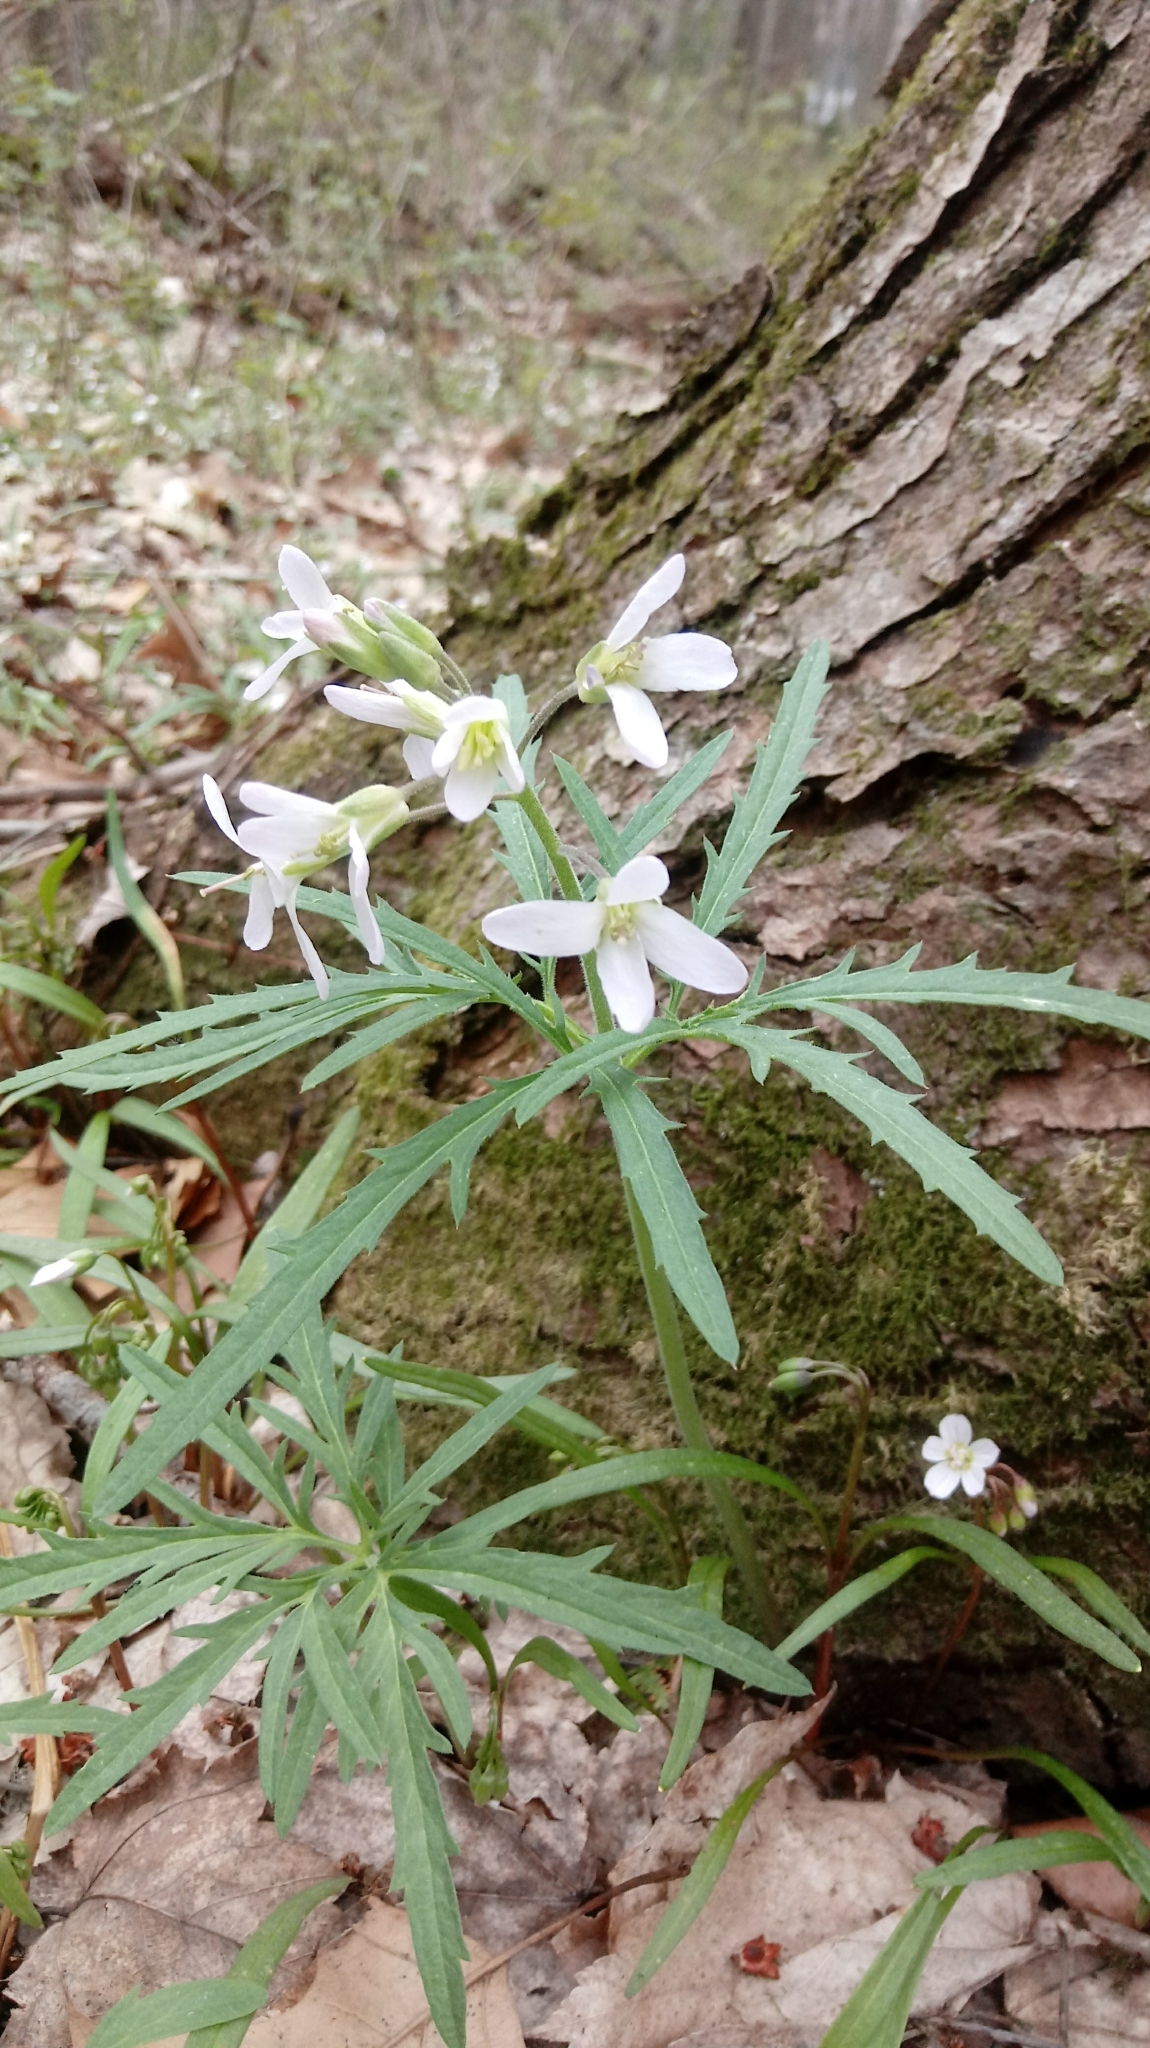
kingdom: Plantae
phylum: Tracheophyta
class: Magnoliopsida
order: Brassicales
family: Brassicaceae
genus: Cardamine
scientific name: Cardamine concatenata
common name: Cut-leaf toothcup
